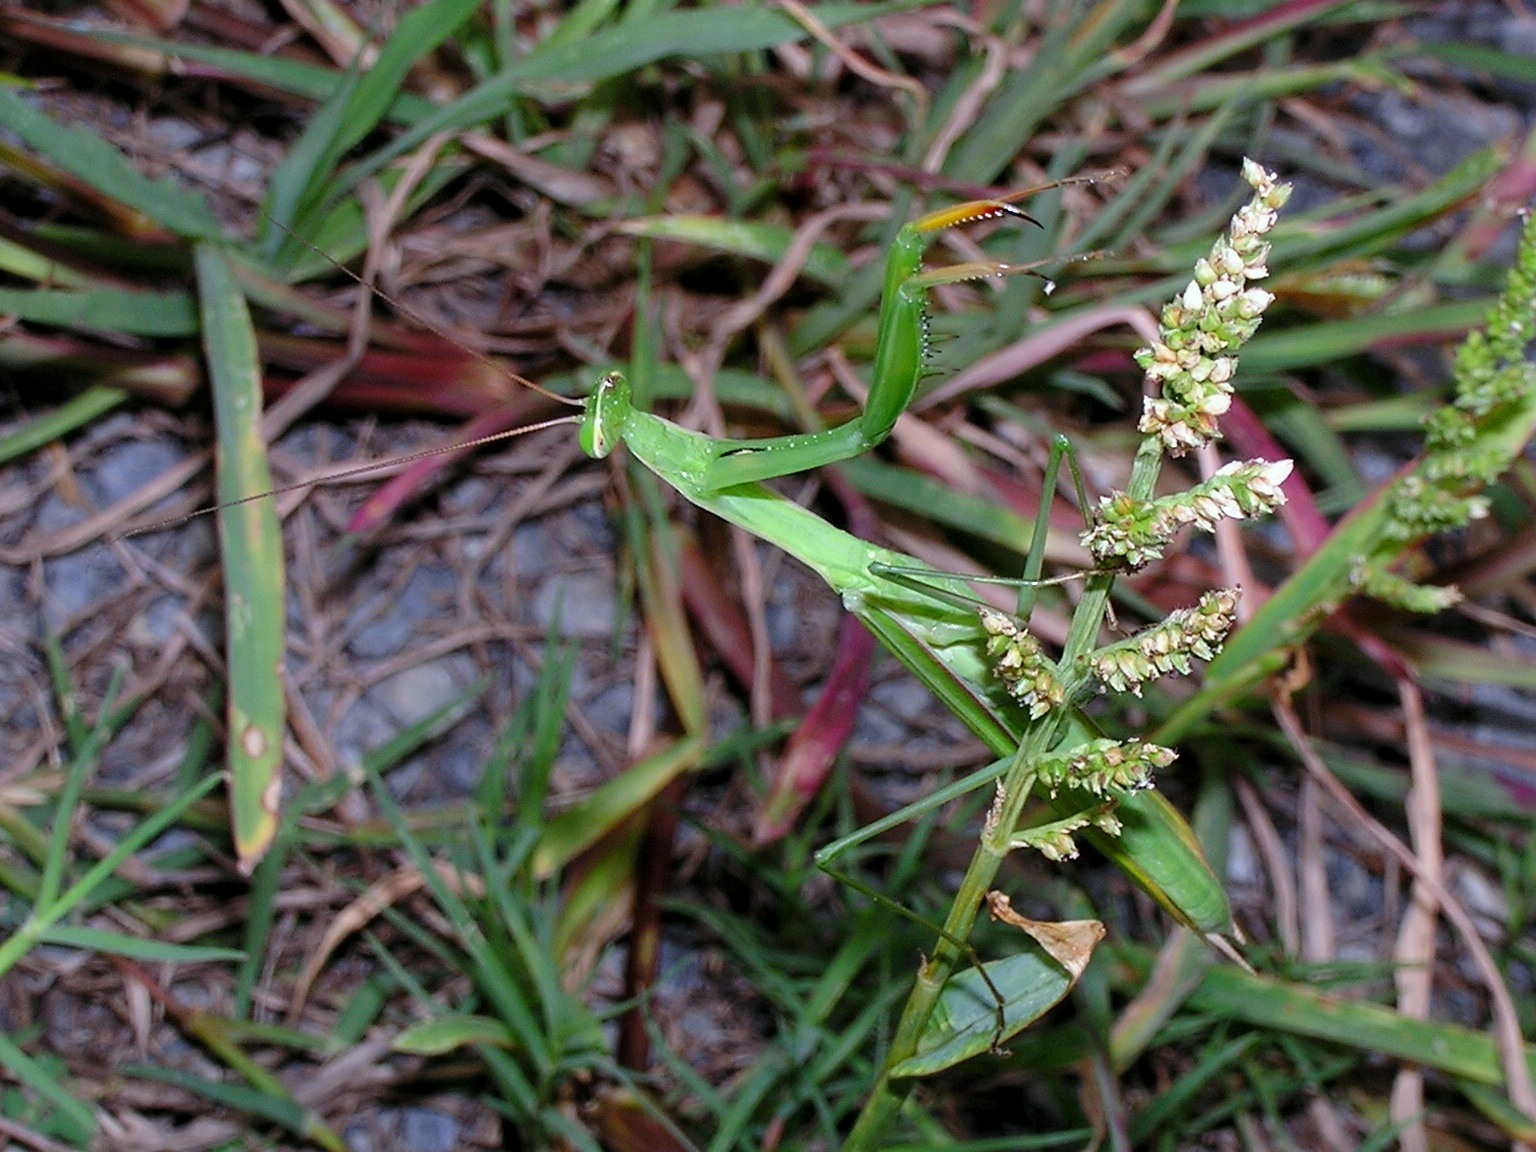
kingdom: Animalia
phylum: Arthropoda
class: Insecta
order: Mantodea
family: Mantidae
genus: Mantis
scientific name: Mantis religiosa
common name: Praying mantis
